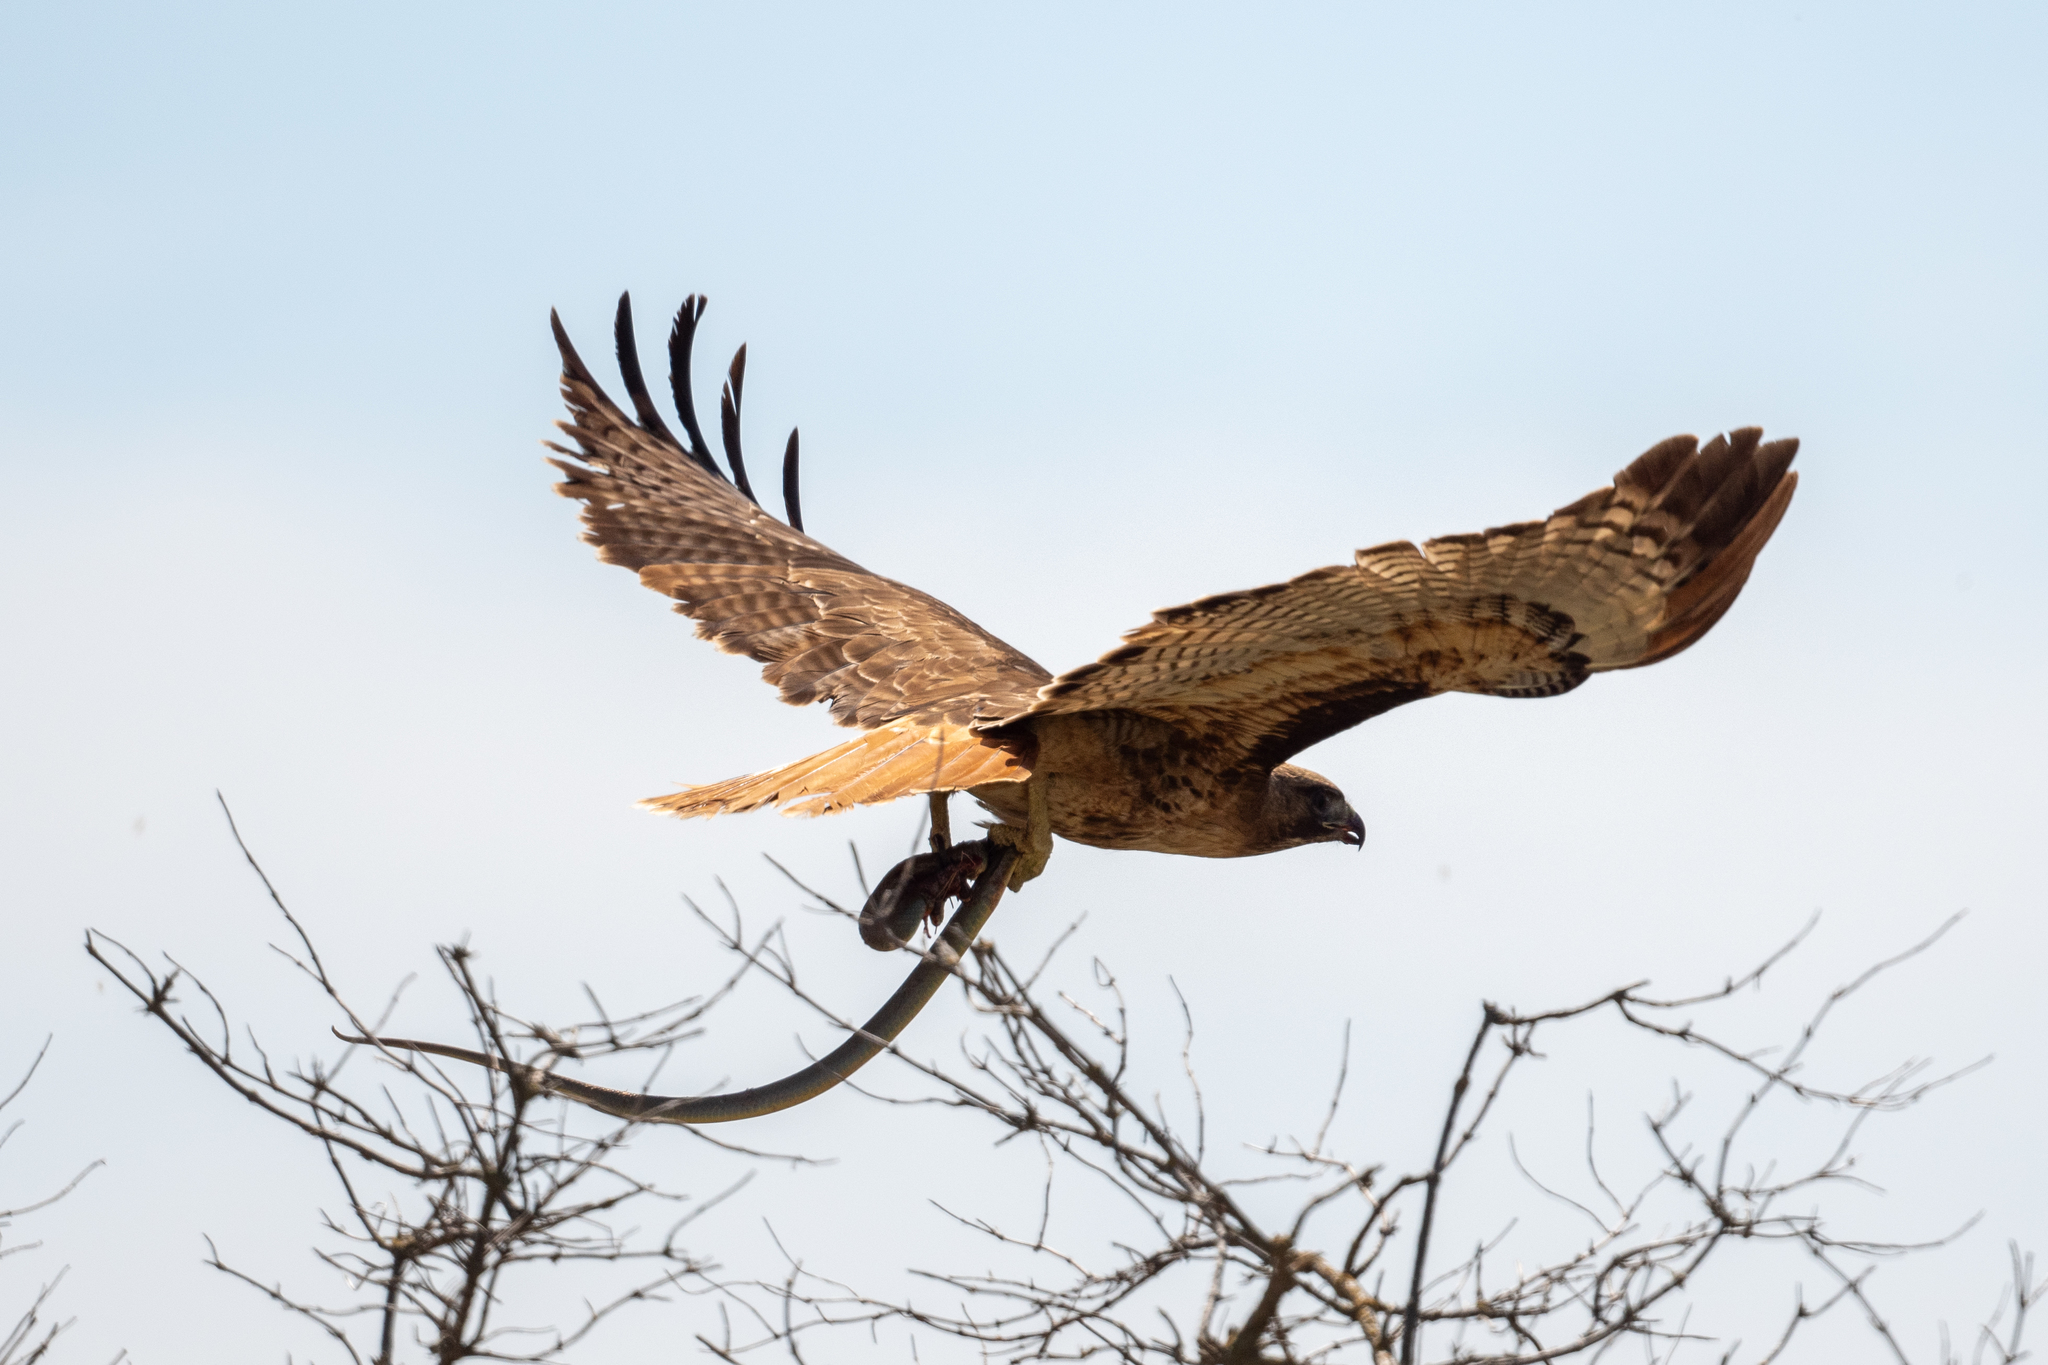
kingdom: Animalia
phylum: Chordata
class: Aves
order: Accipitriformes
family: Accipitridae
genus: Buteo
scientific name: Buteo jamaicensis
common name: Red-tailed hawk
